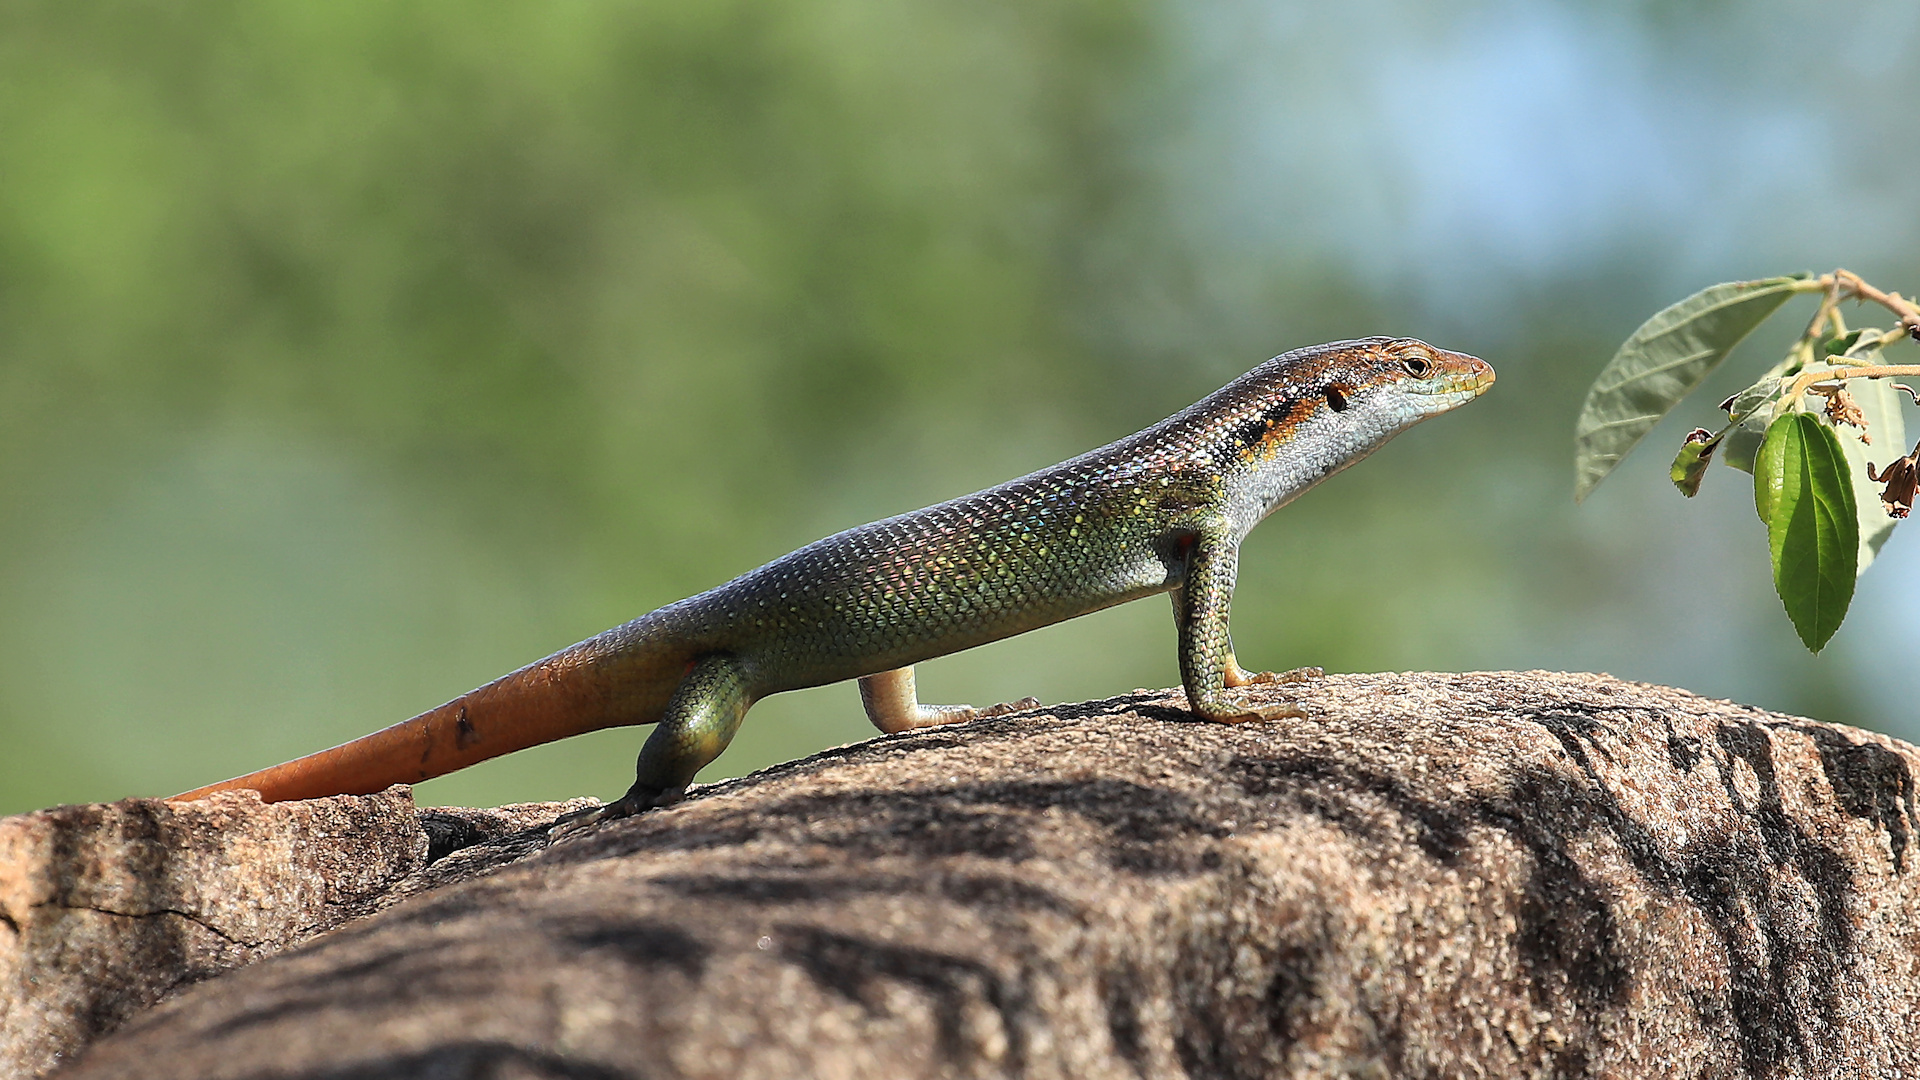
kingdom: Animalia
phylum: Chordata
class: Squamata
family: Scincidae
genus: Trachylepis
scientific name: Trachylepis margaritifera
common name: Rainbow skink
